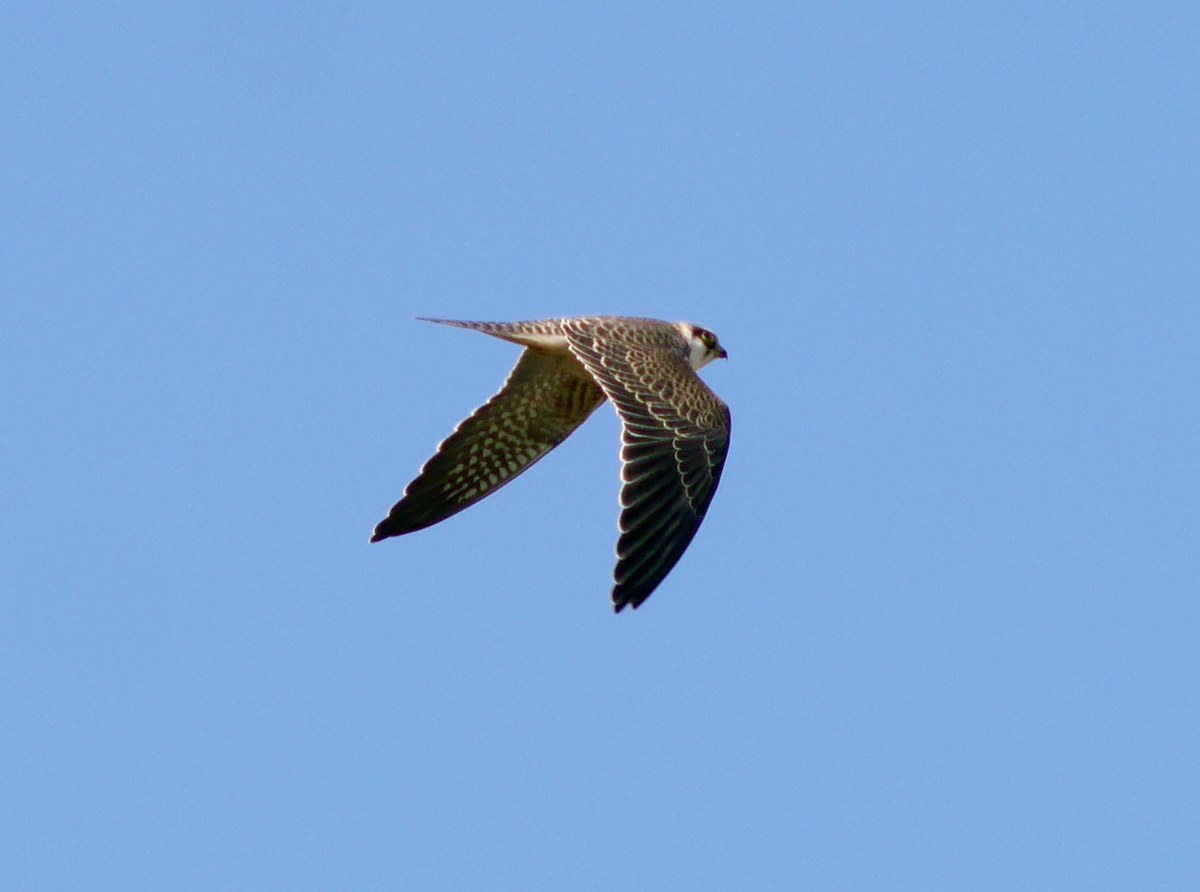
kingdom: Animalia
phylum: Chordata
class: Aves
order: Falconiformes
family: Falconidae
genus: Falco
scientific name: Falco subbuteo
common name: Eurasian hobby
